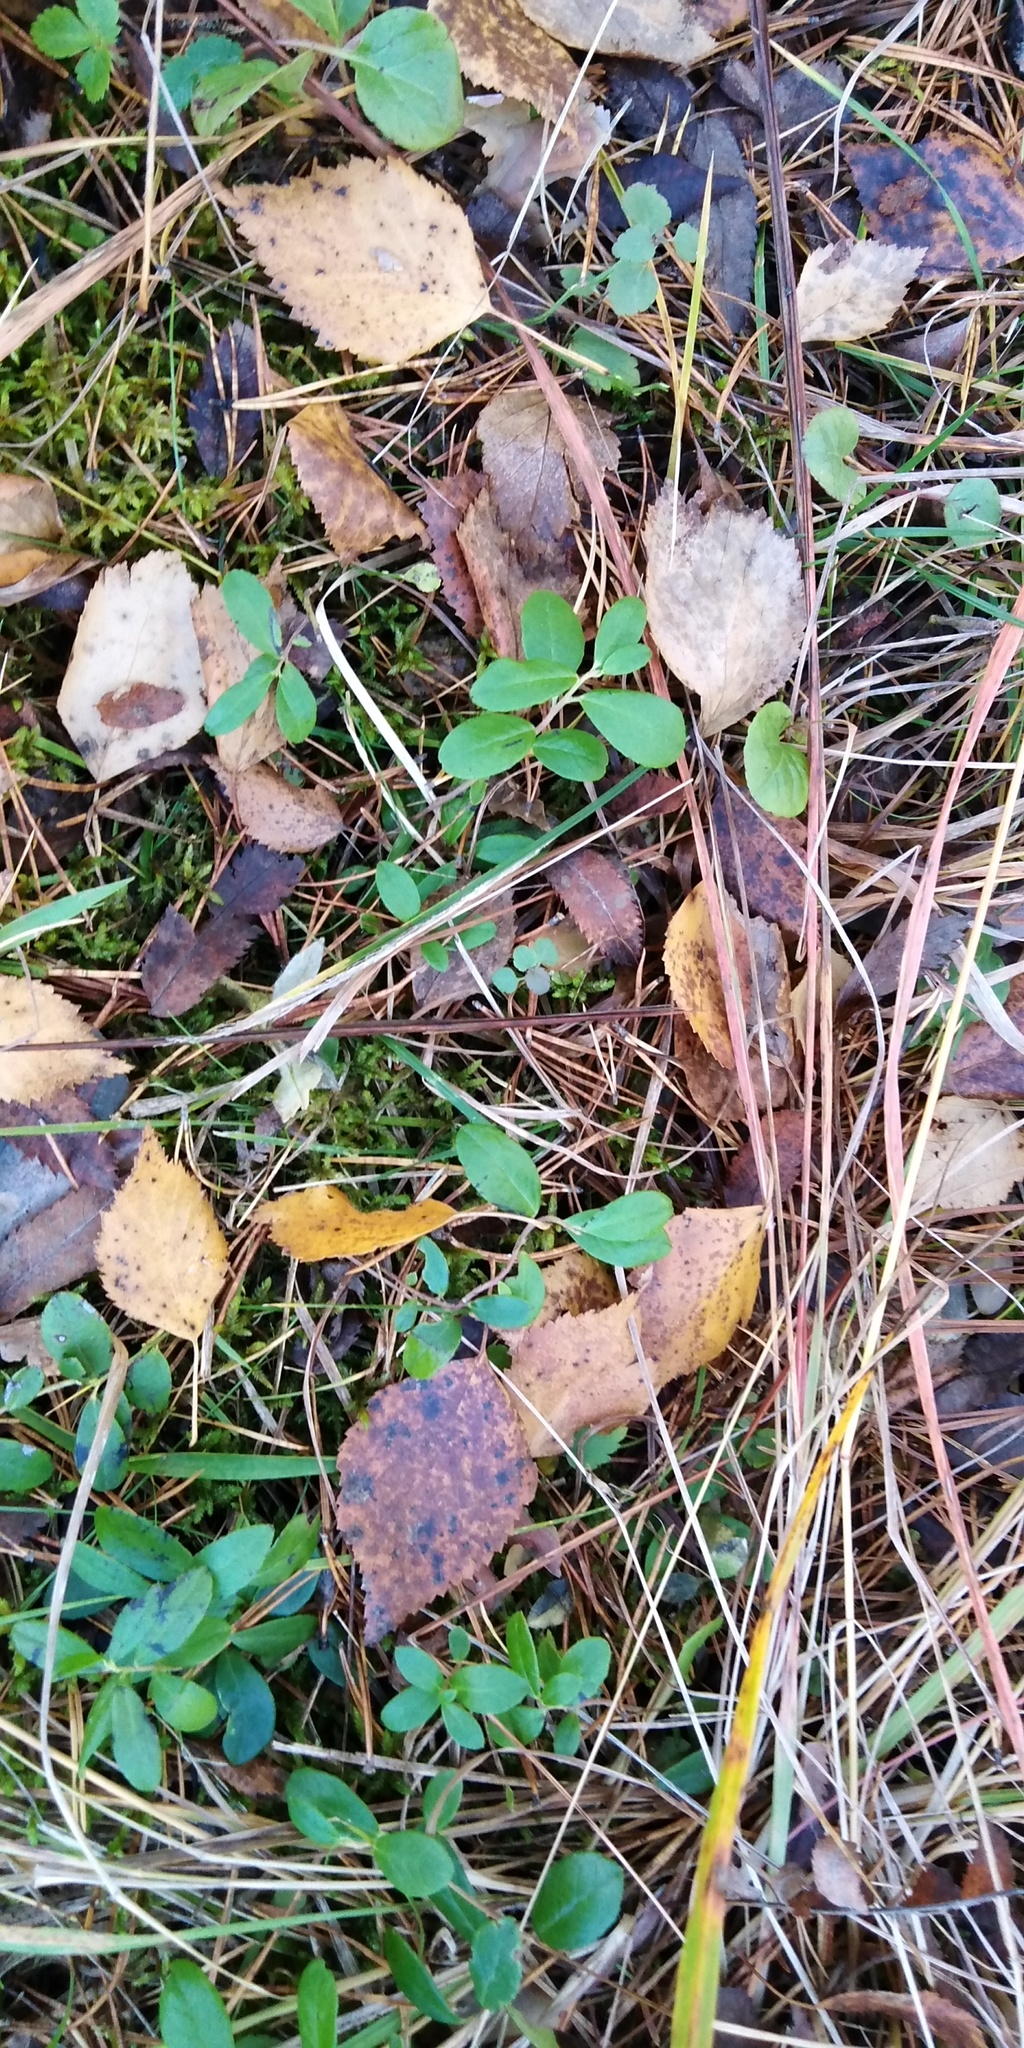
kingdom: Plantae
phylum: Tracheophyta
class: Magnoliopsida
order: Ericales
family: Ericaceae
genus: Vaccinium
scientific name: Vaccinium vitis-idaea
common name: Cowberry
